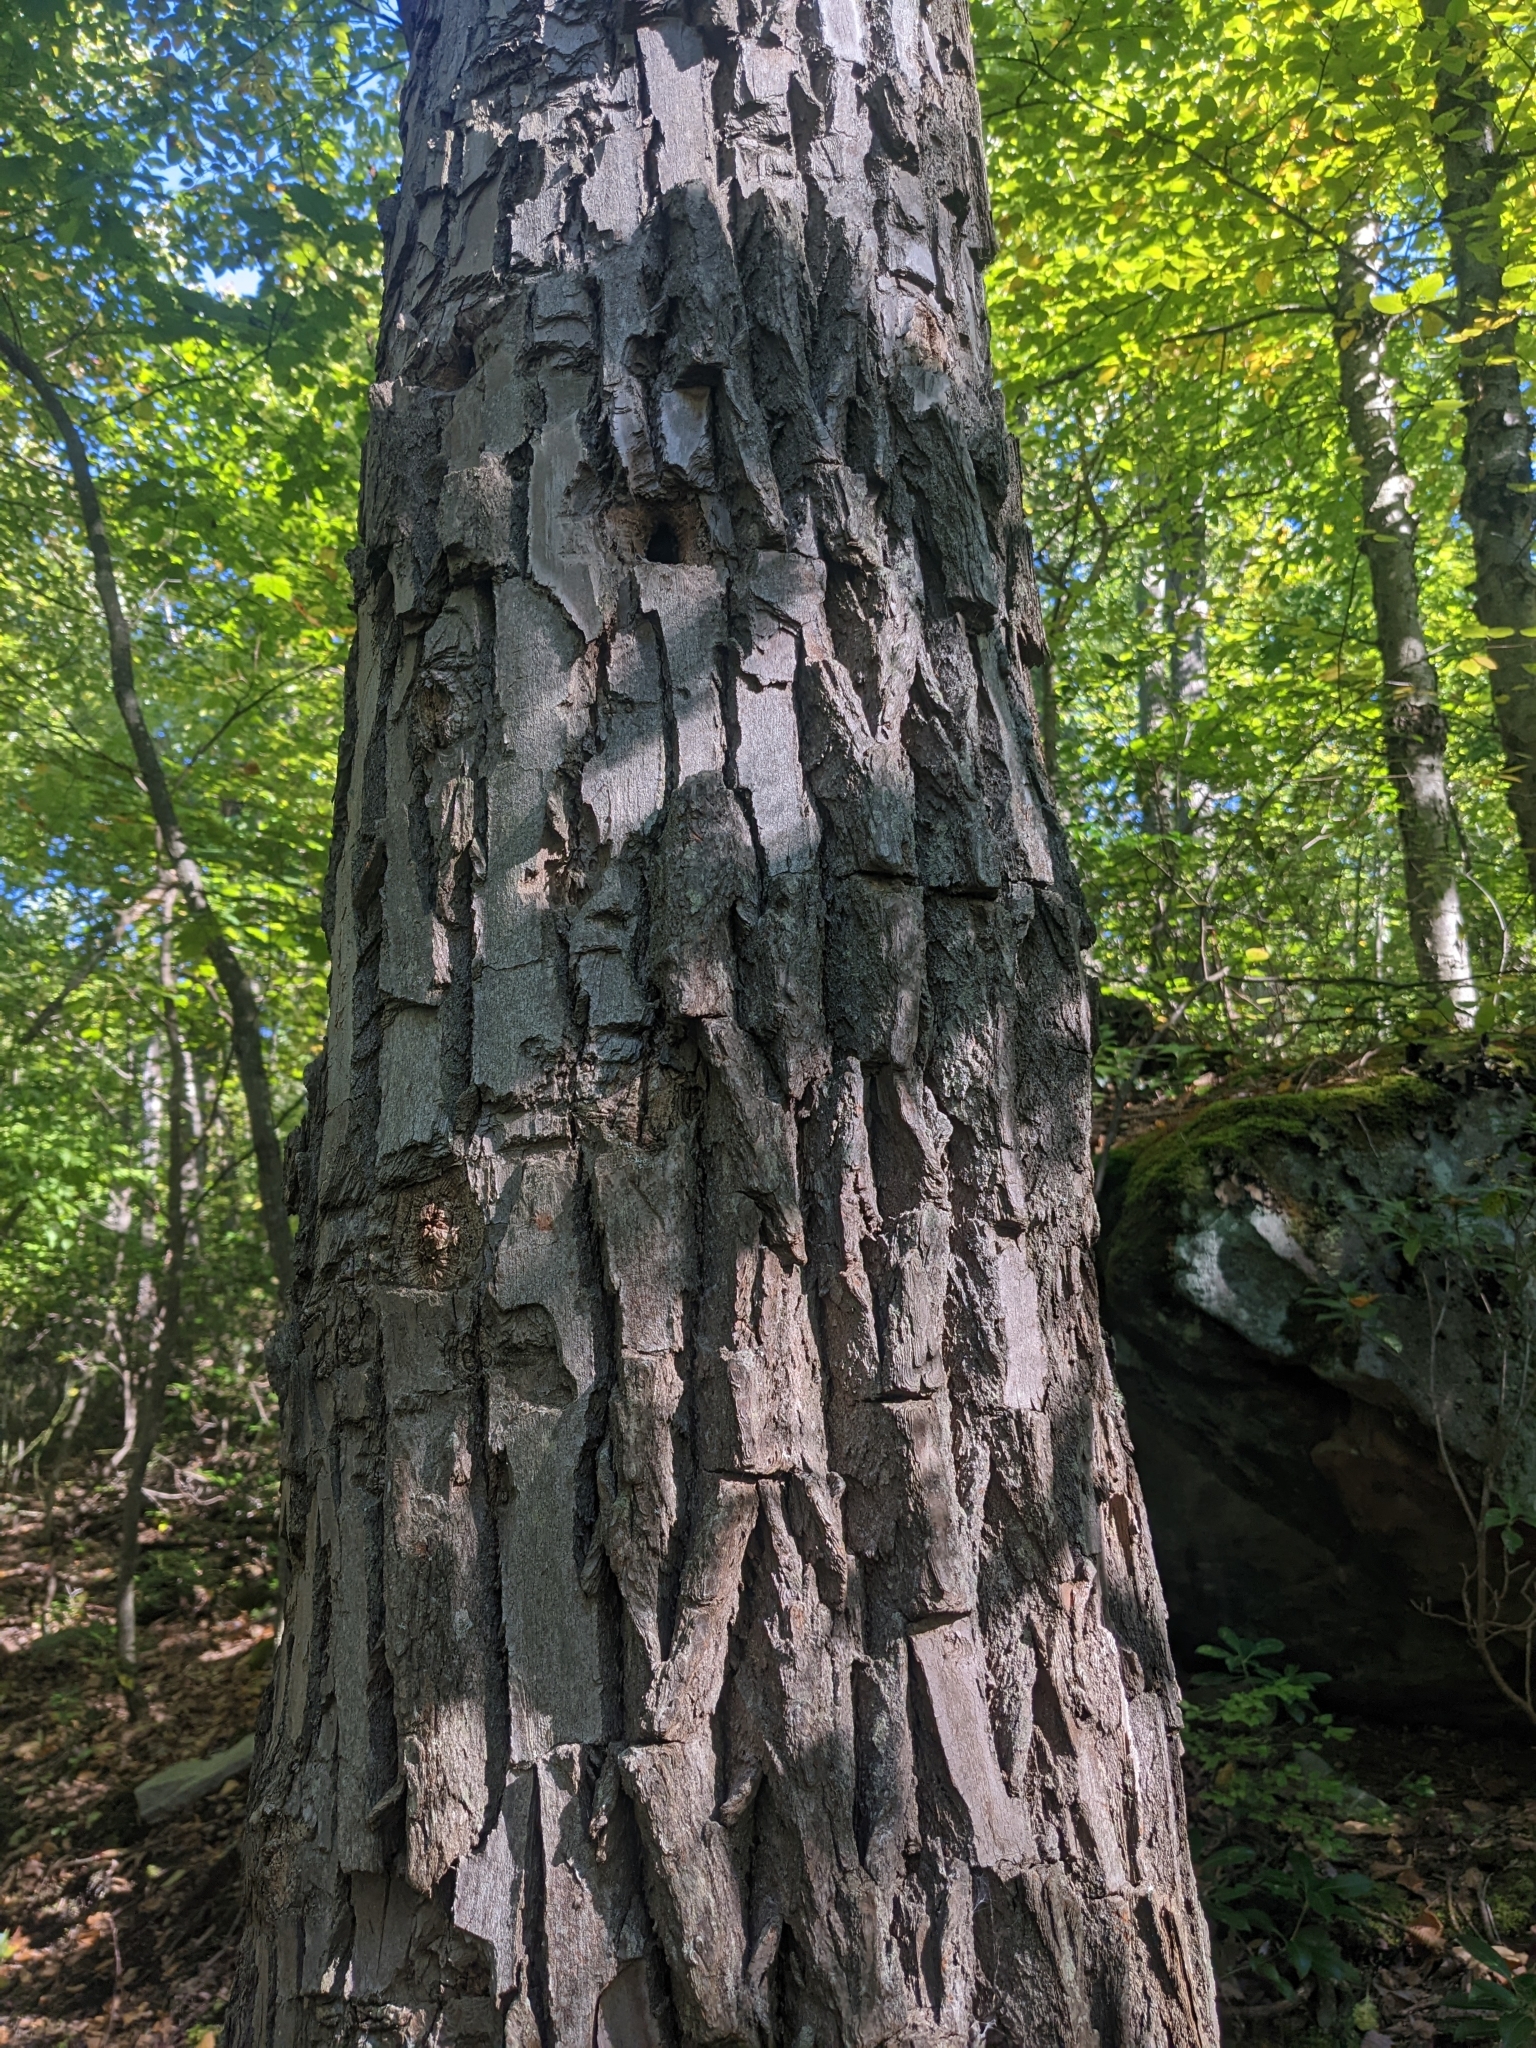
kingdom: Plantae
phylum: Tracheophyta
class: Magnoliopsida
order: Fagales
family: Fagaceae
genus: Quercus
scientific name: Quercus montana
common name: Chestnut oak
